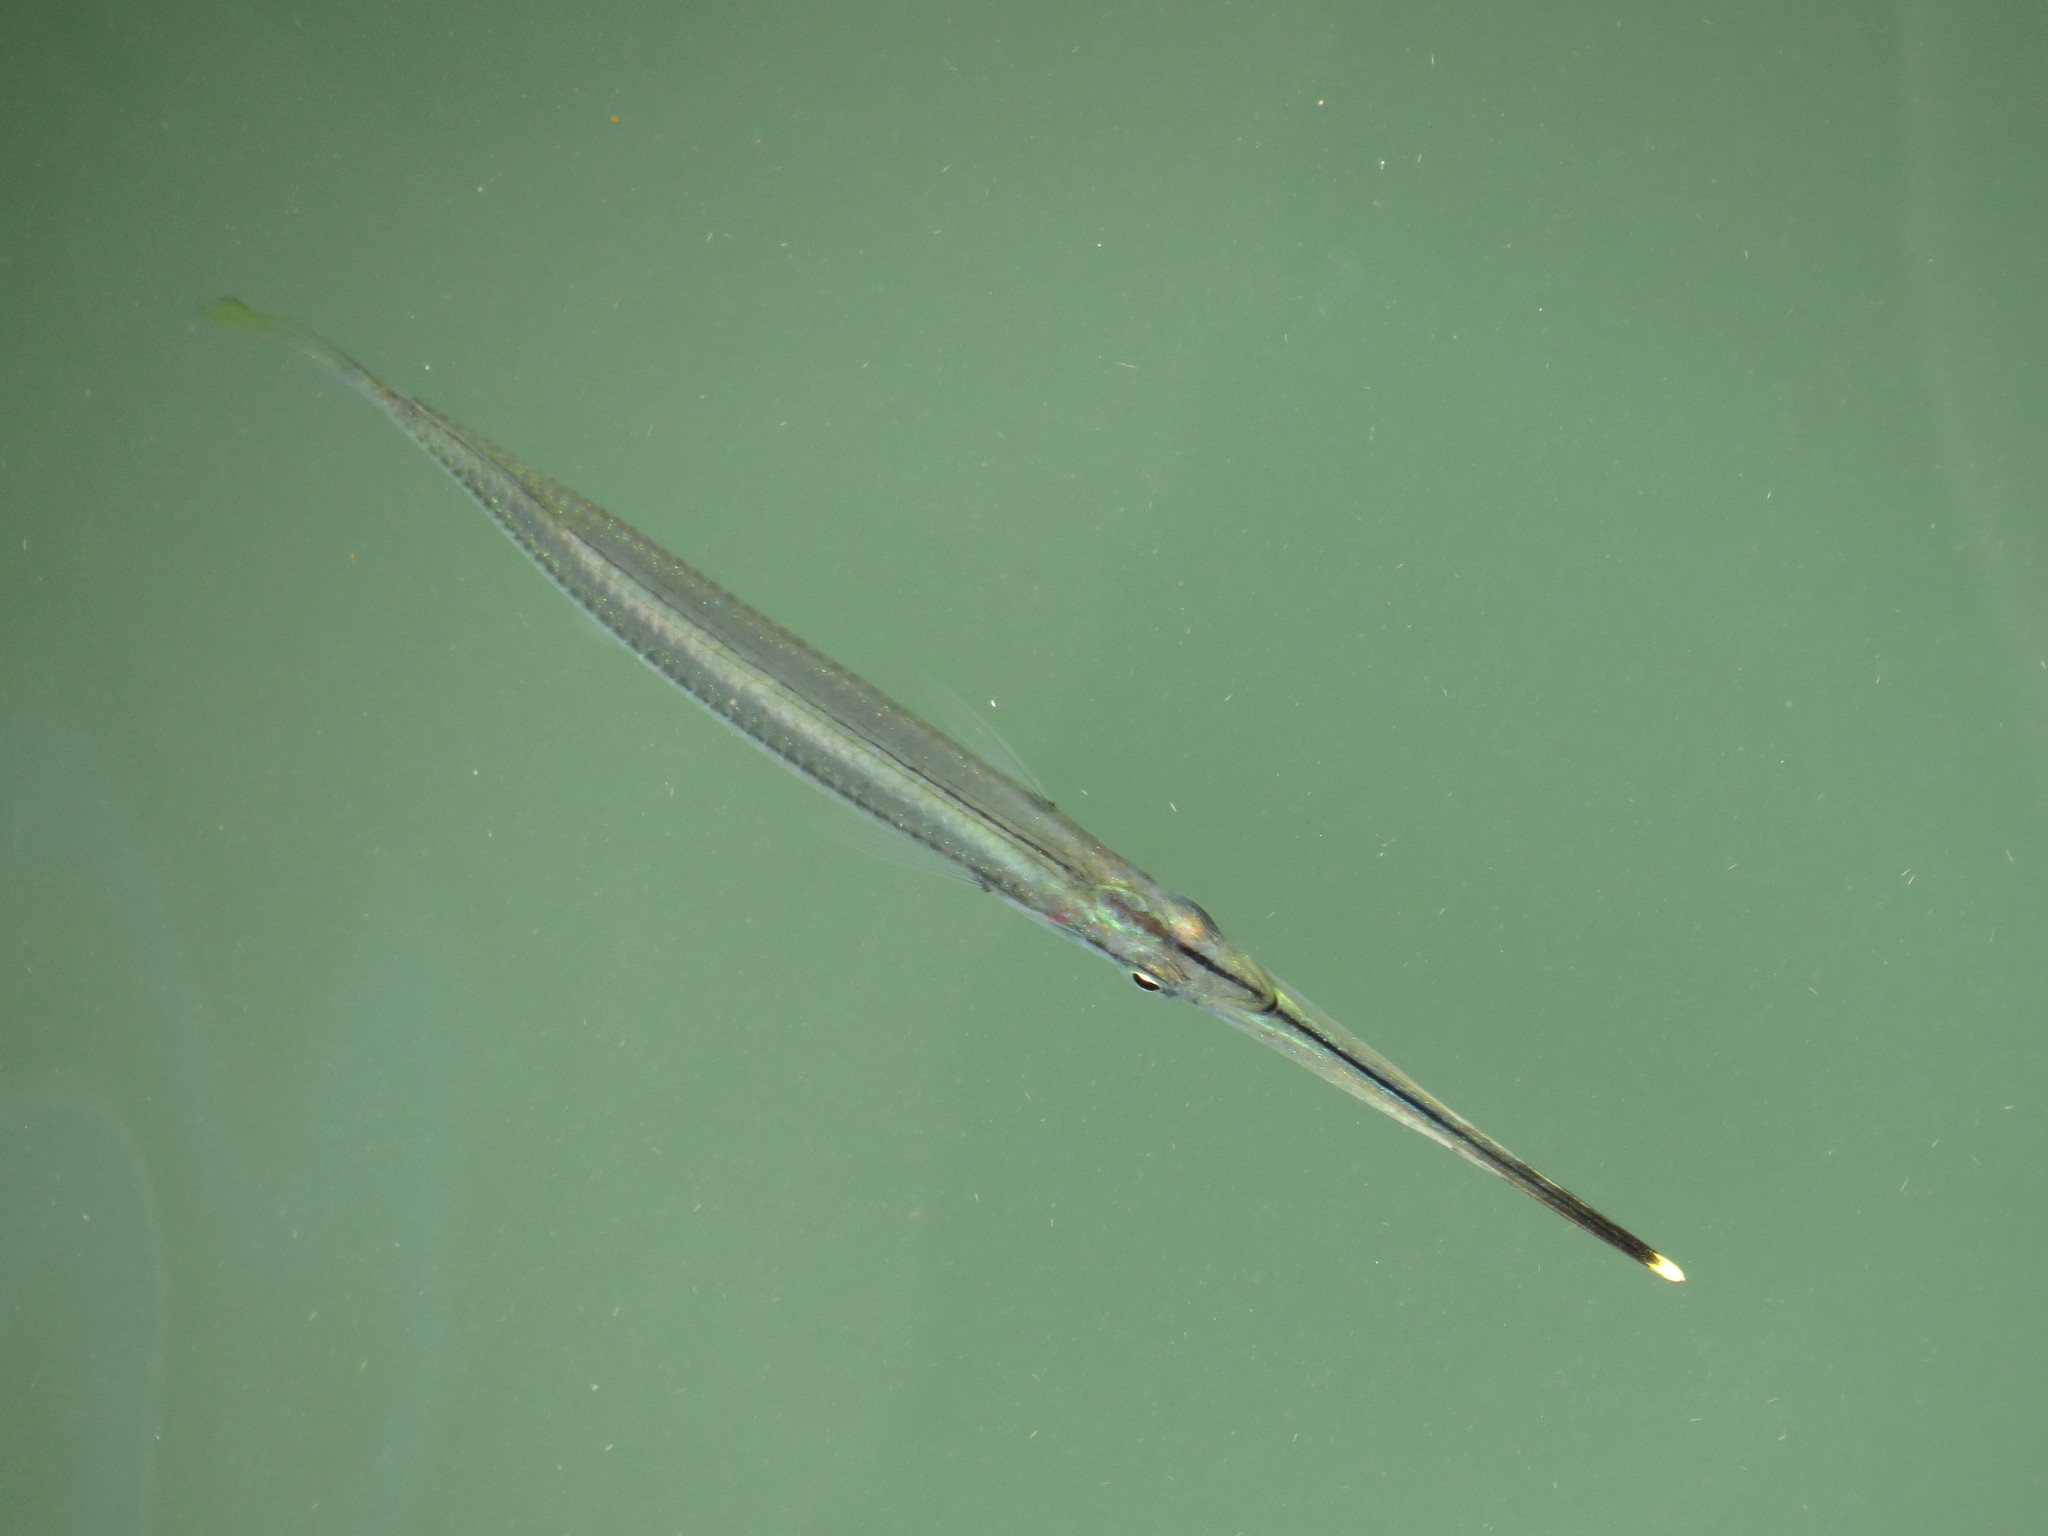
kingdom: Animalia
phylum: Chordata
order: Beloniformes
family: Zenarchopteridae
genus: Zenarchopterus
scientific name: Zenarchopterus buffonis
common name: Buffon's river-garfish
